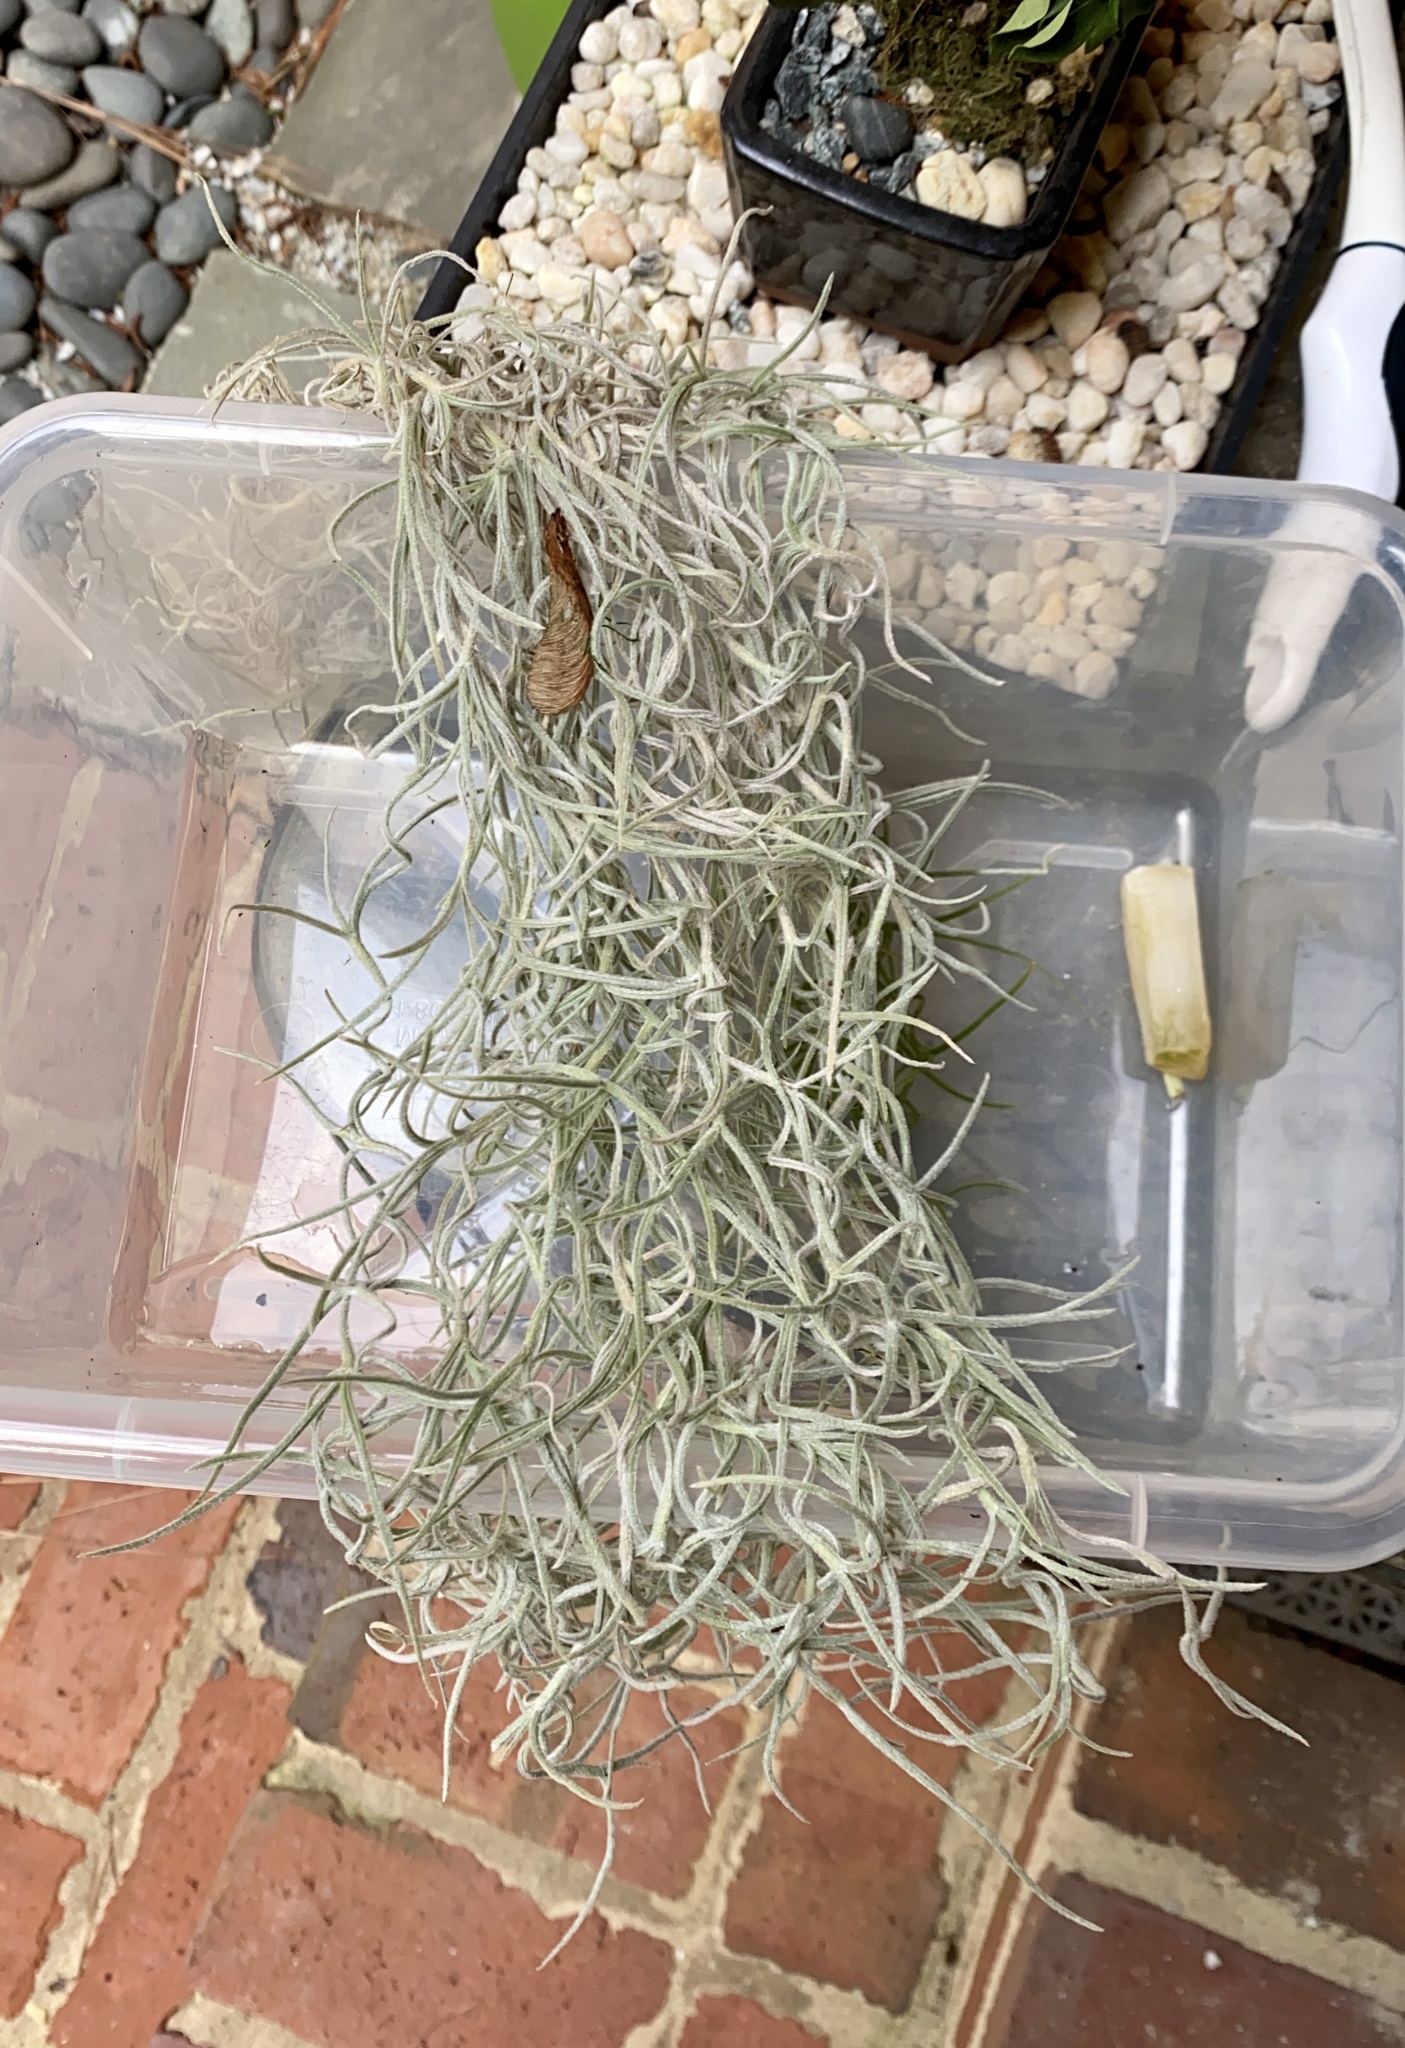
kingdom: Plantae
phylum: Tracheophyta
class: Liliopsida
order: Poales
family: Bromeliaceae
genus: Tillandsia
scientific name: Tillandsia usneoides
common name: Spanish moss
